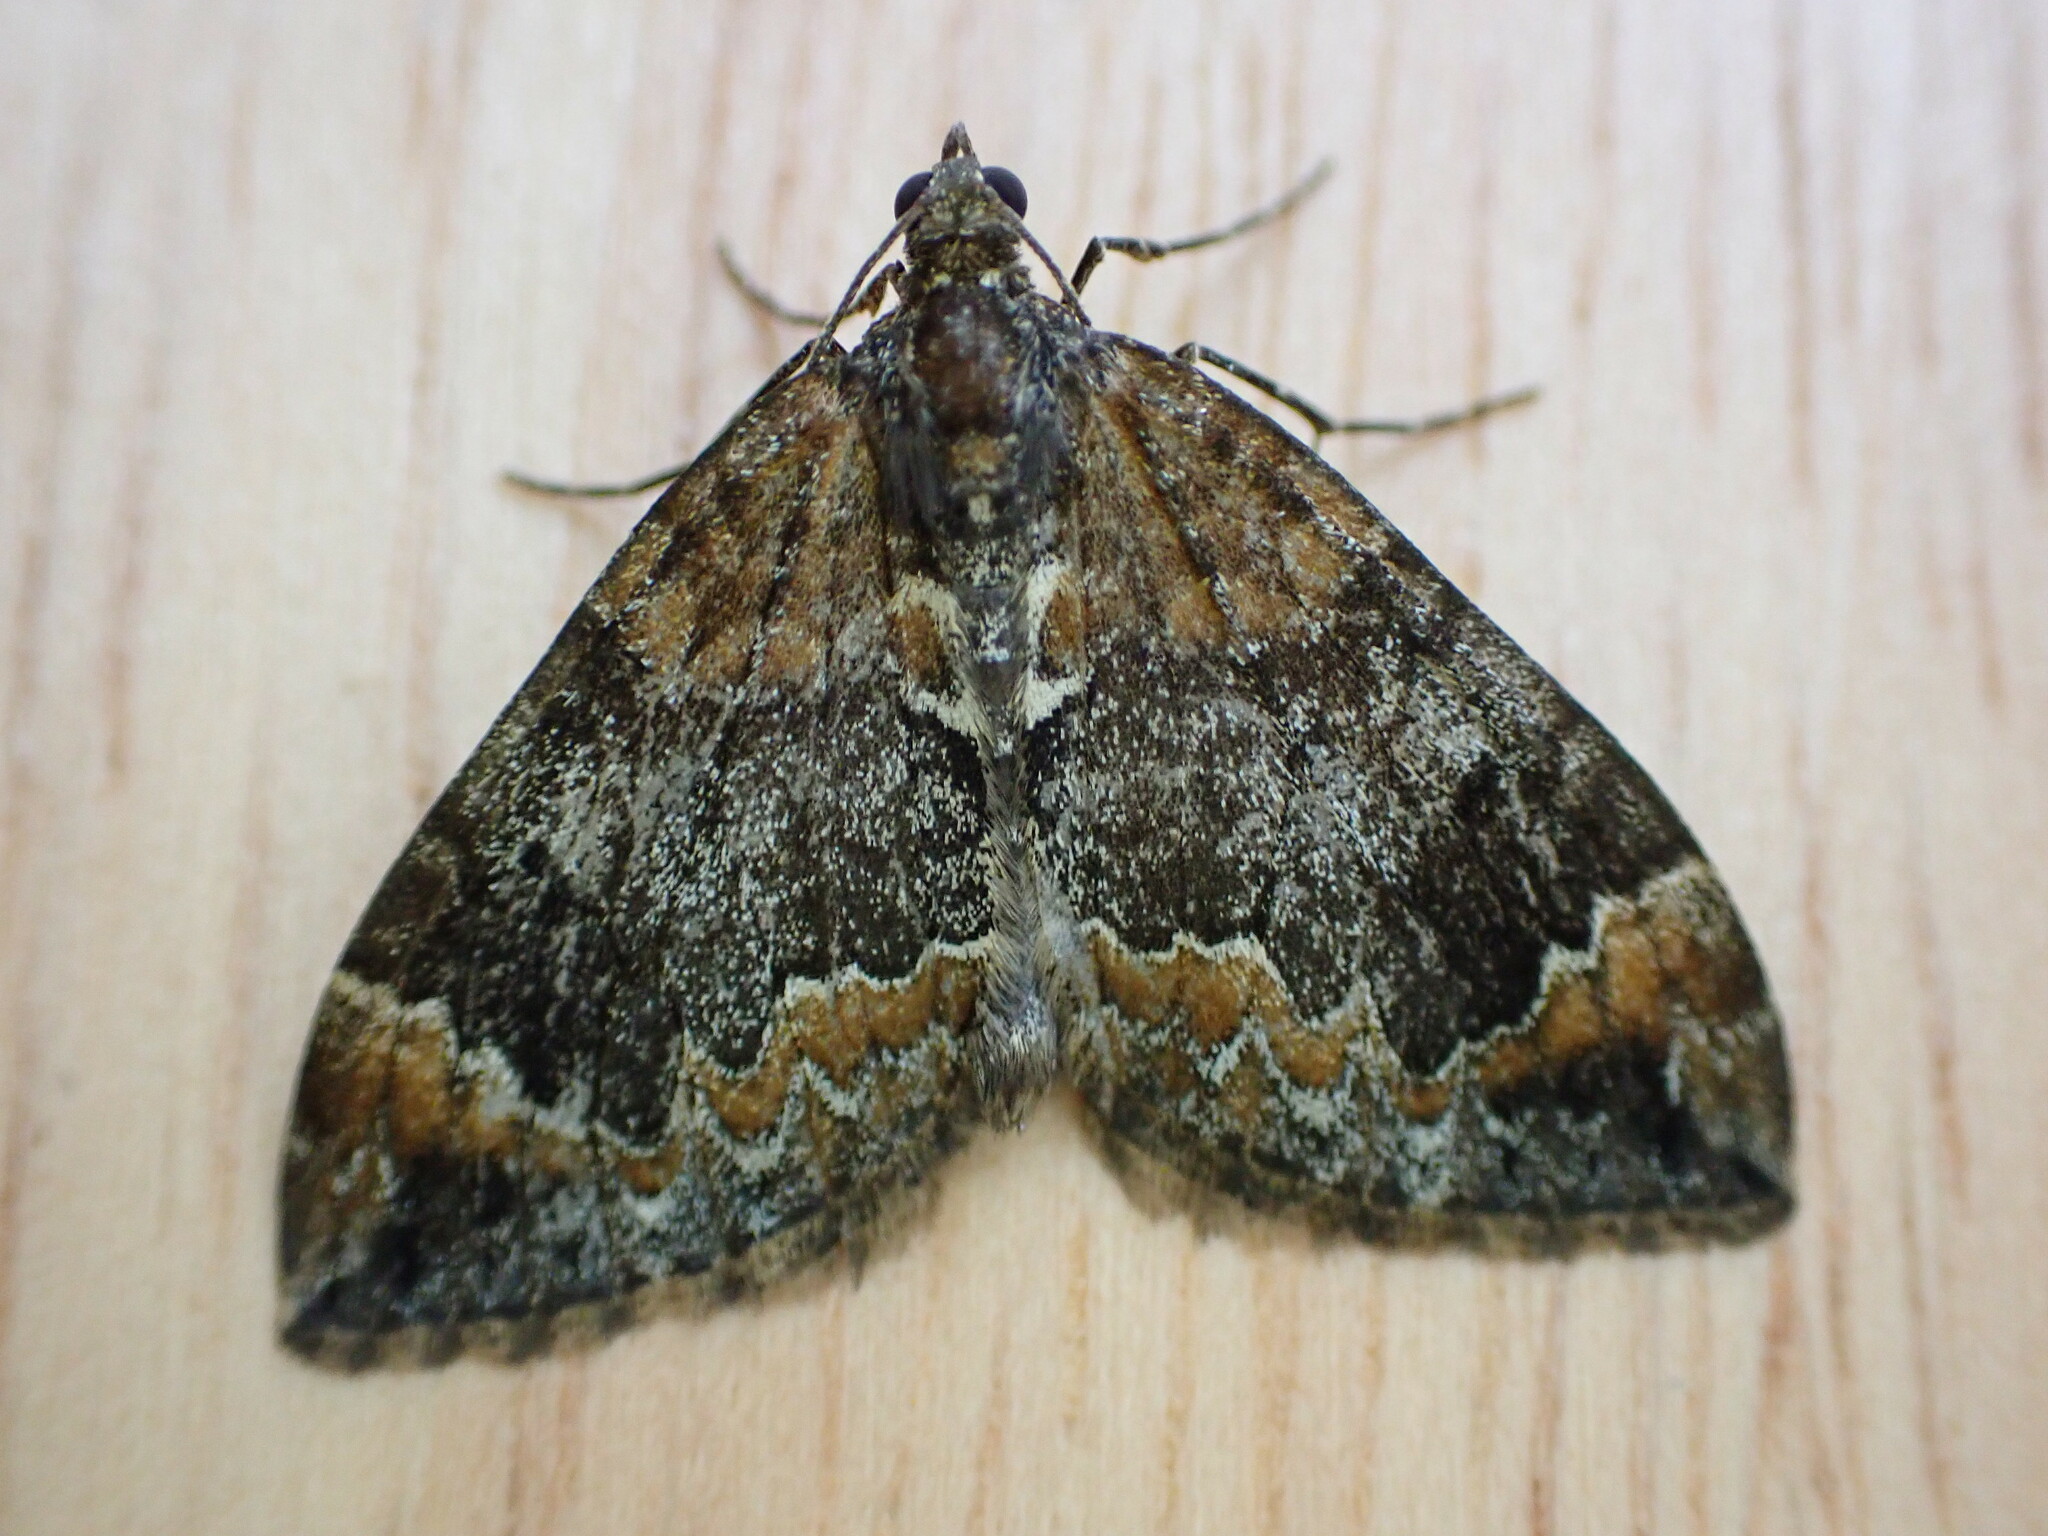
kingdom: Animalia
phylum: Arthropoda
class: Insecta
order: Lepidoptera
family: Geometridae
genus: Dysstroma
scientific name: Dysstroma truncata
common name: Common marbled carpet
